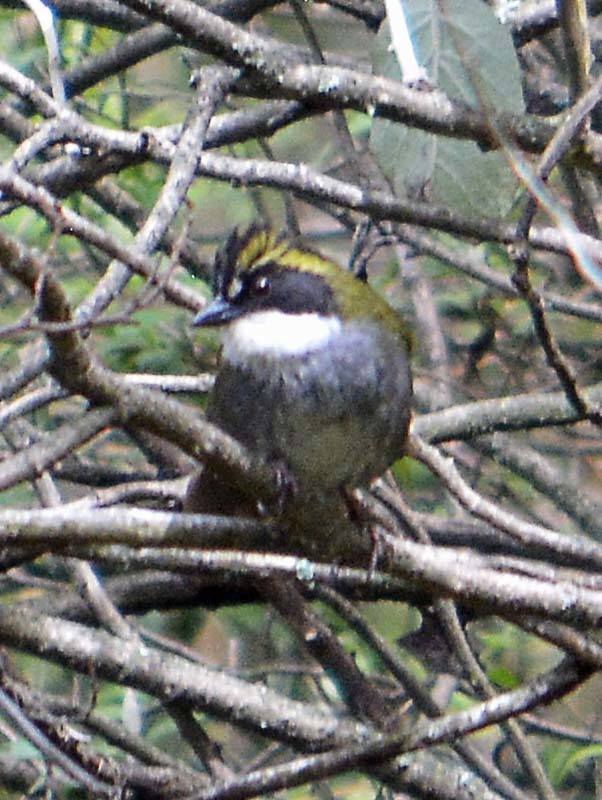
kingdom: Animalia
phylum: Chordata
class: Aves
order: Passeriformes
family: Passerellidae
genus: Arremon
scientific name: Arremon virenticeps
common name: Green-striped brushfinch
